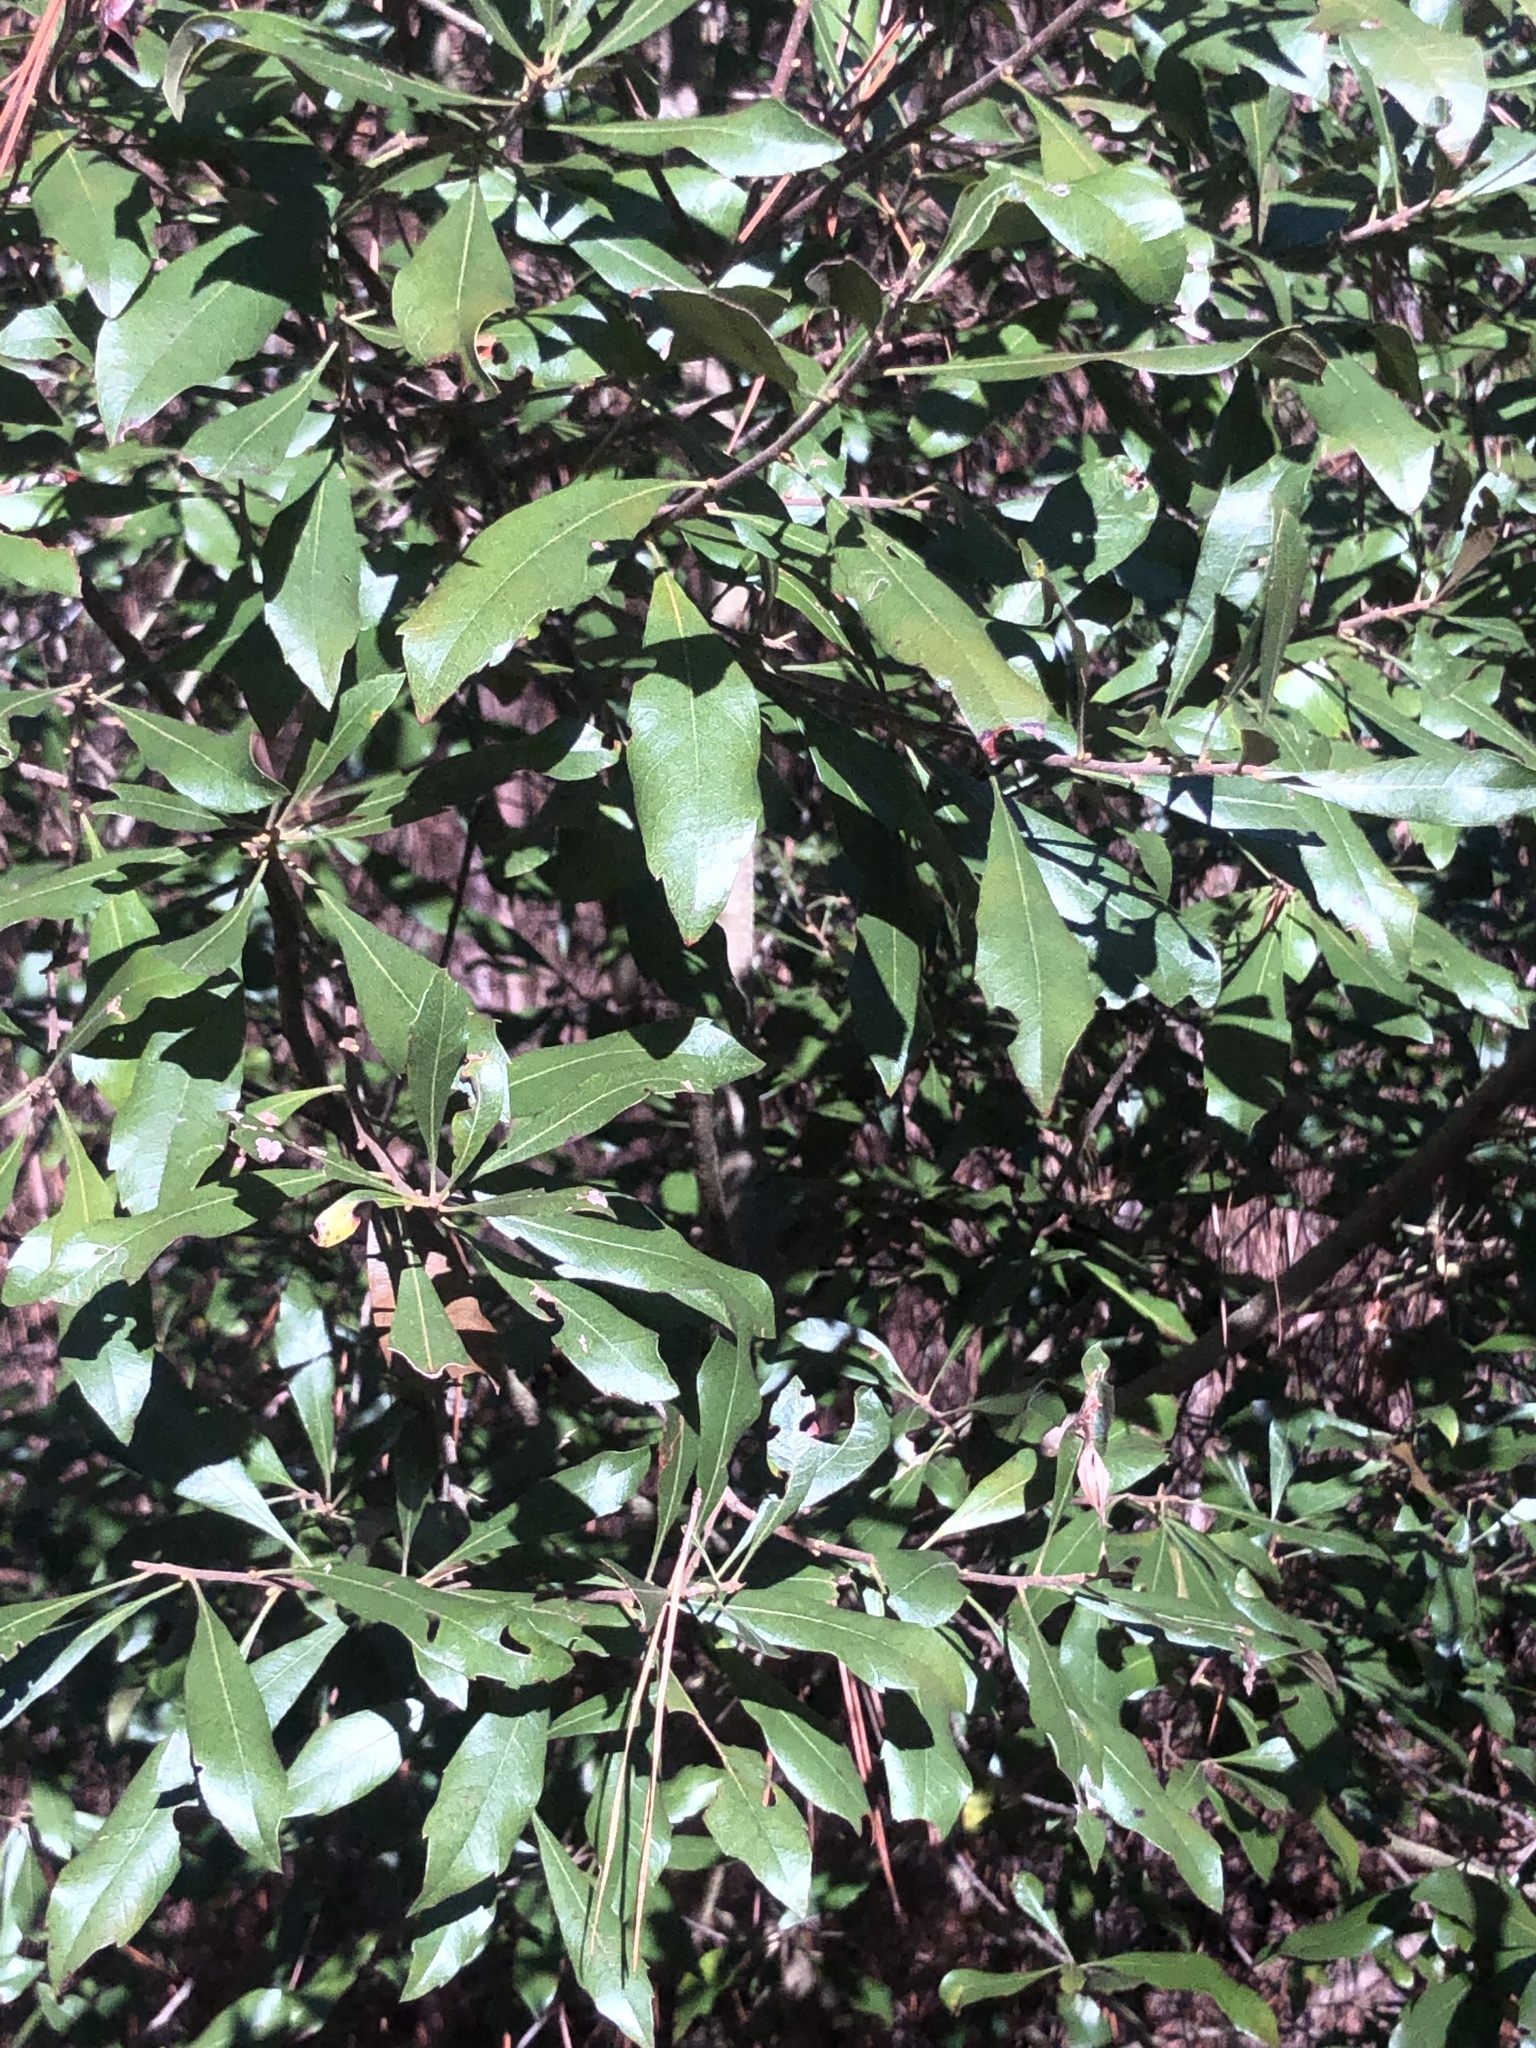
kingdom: Plantae
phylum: Tracheophyta
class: Magnoliopsida
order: Fagales
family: Myricaceae
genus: Morella
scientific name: Morella cerifera
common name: Wax myrtle
